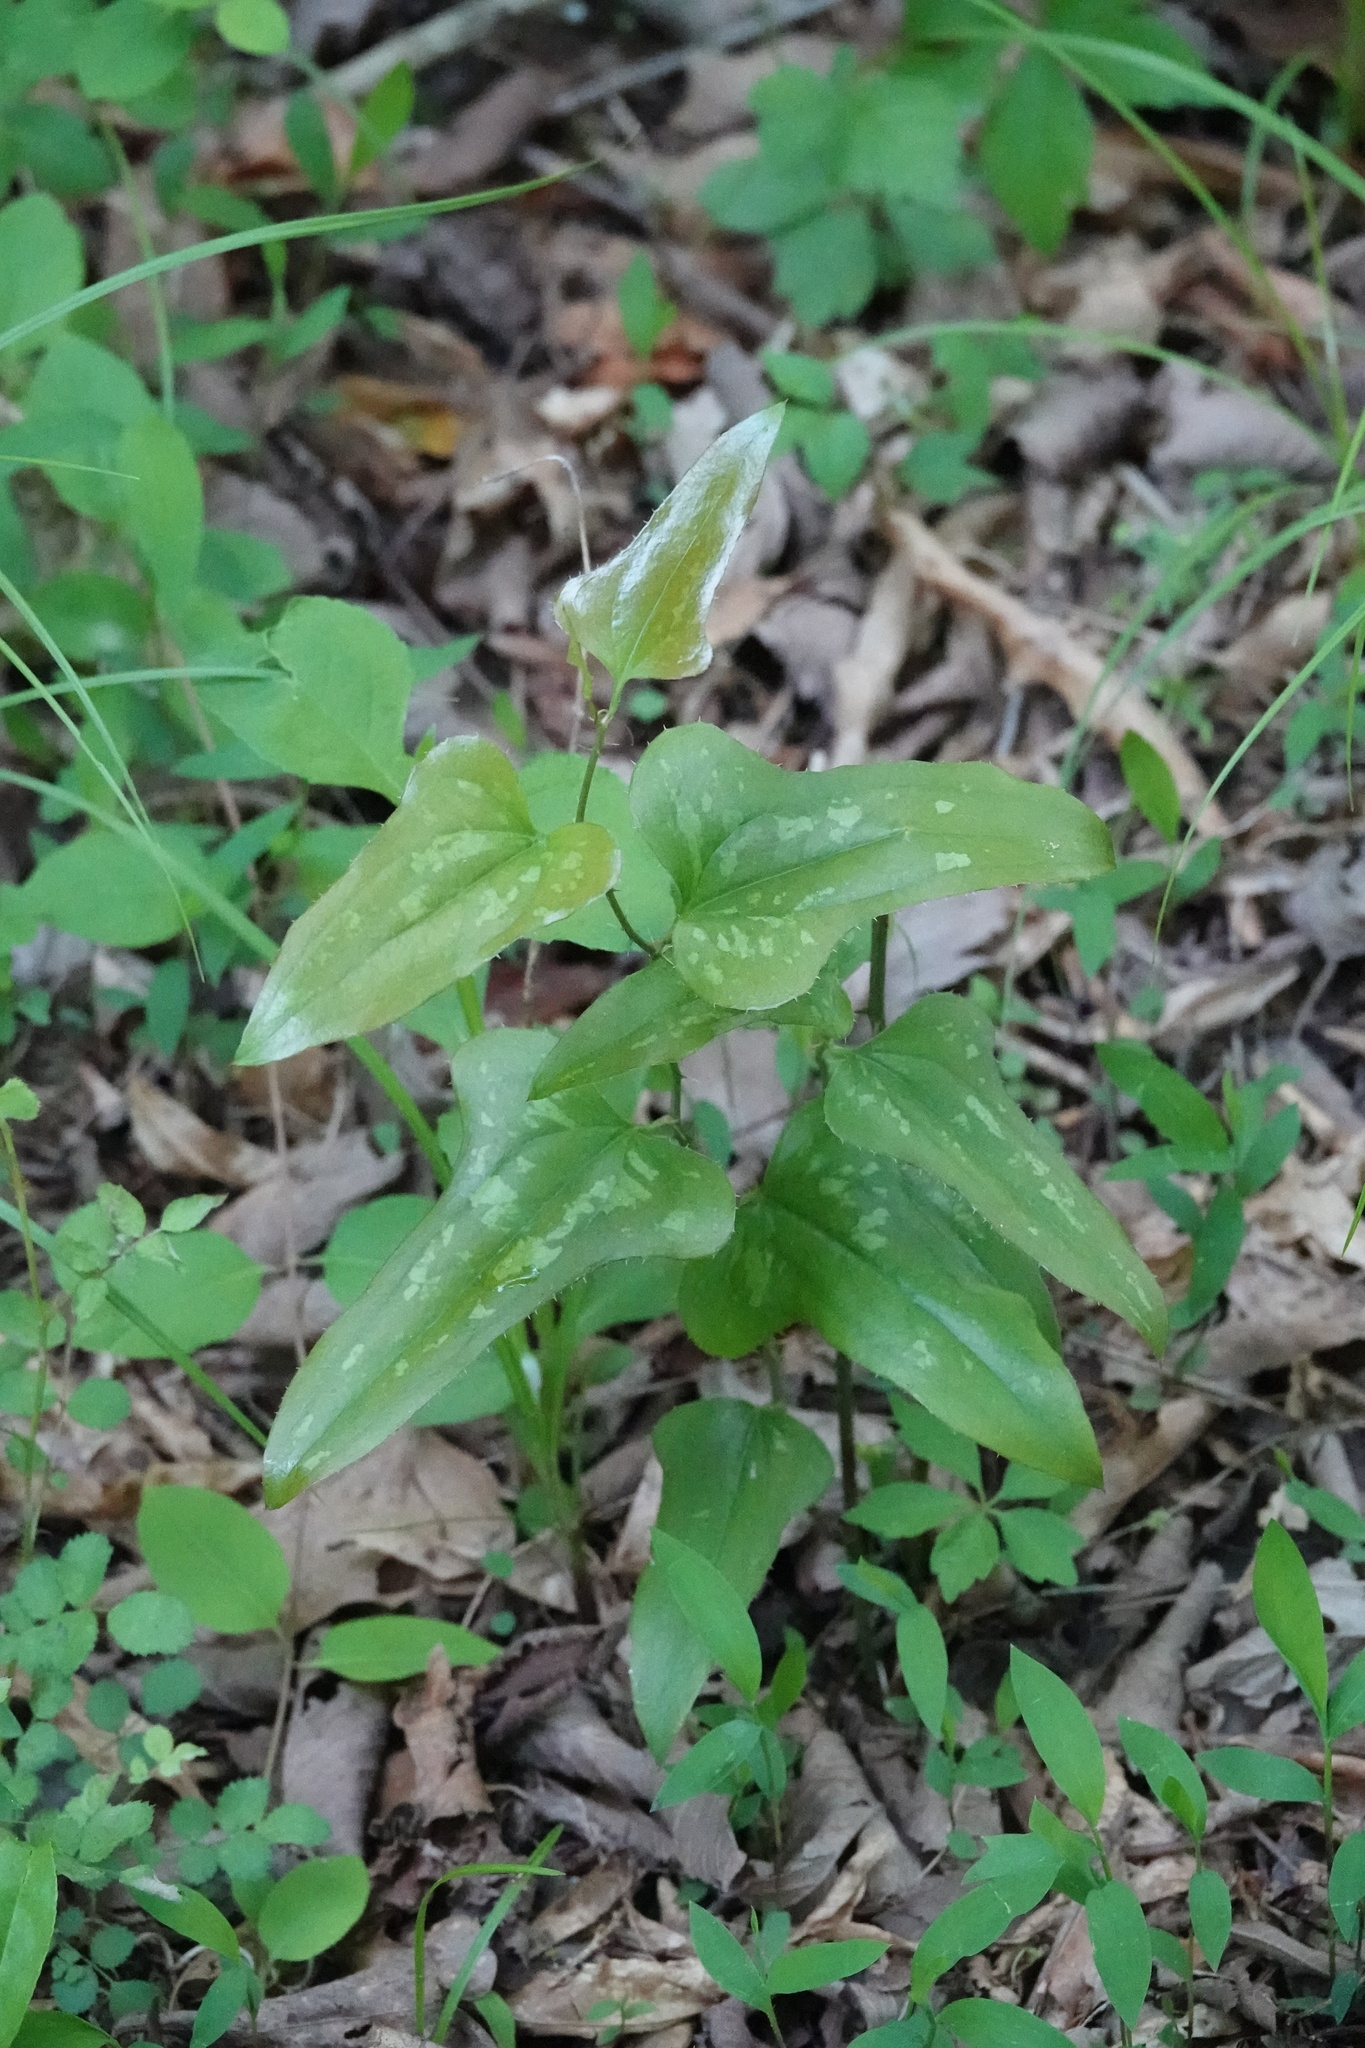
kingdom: Plantae
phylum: Tracheophyta
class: Liliopsida
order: Liliales
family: Smilacaceae
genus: Smilax
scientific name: Smilax bona-nox
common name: Catbrier
